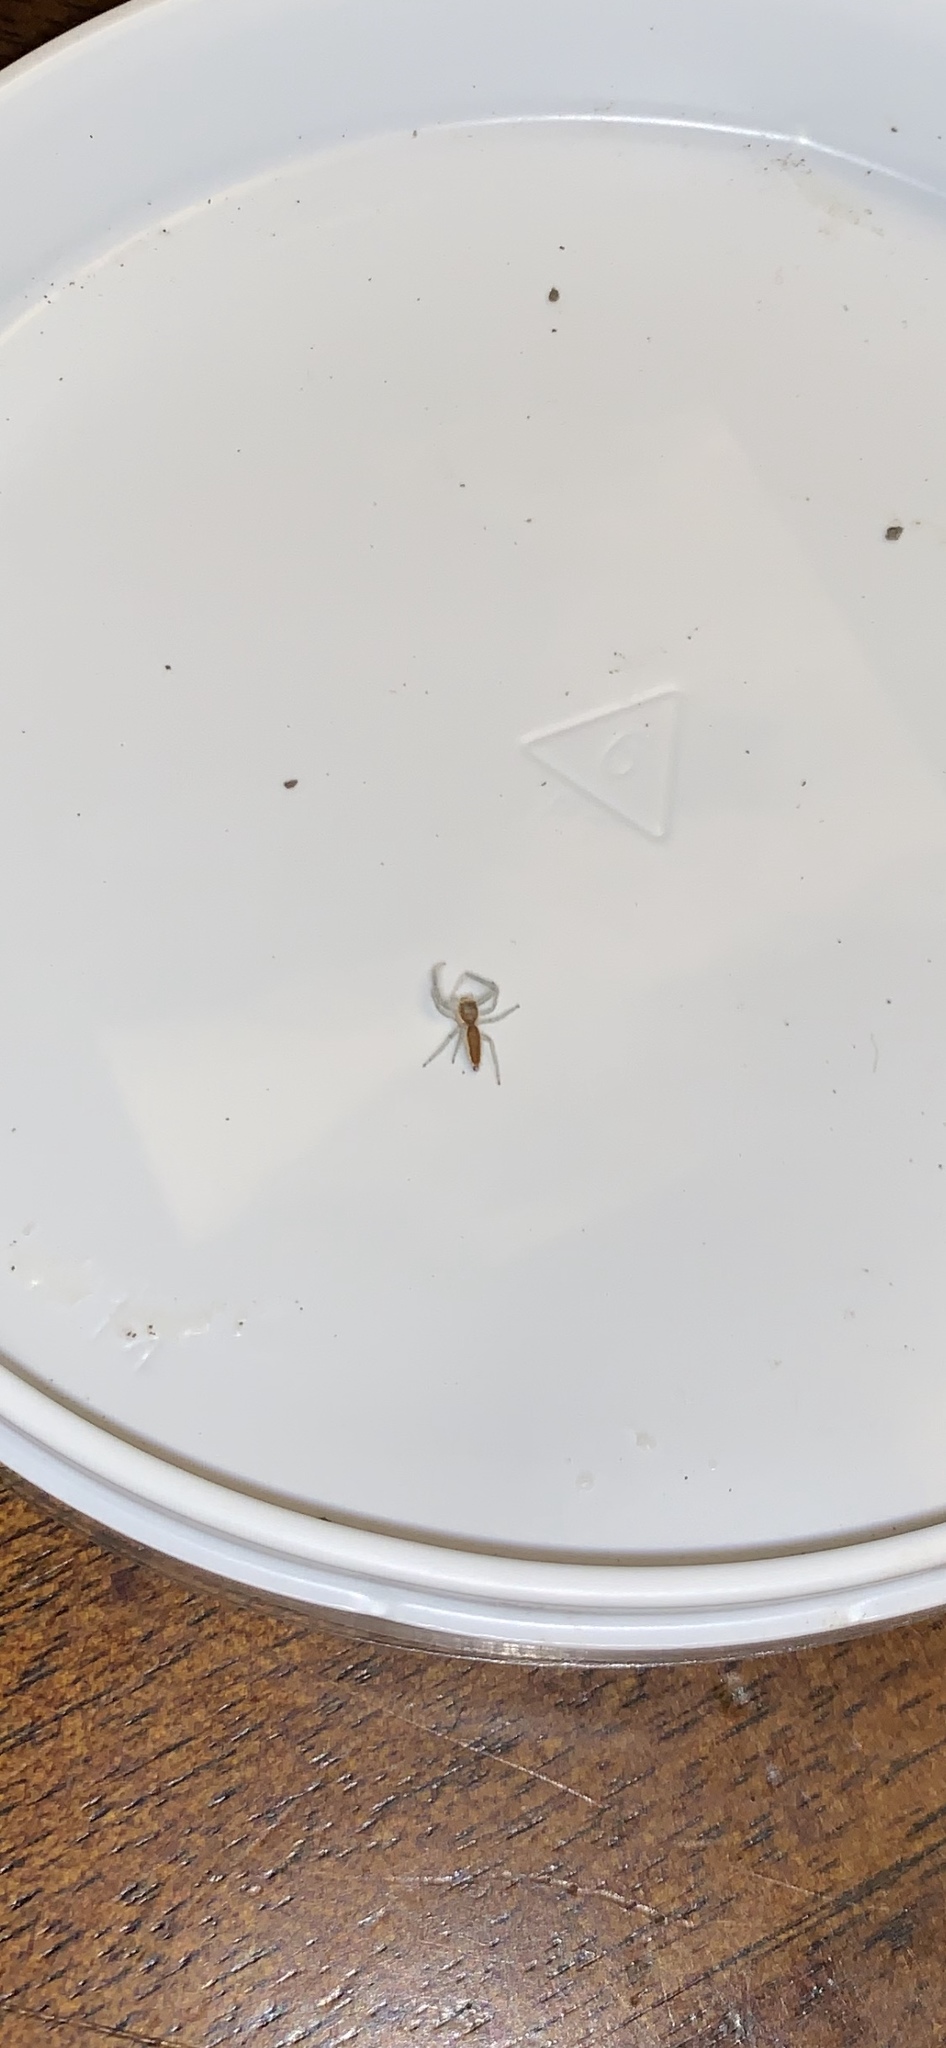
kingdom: Animalia
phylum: Arthropoda
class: Arachnida
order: Araneae
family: Salticidae
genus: Hentzia
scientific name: Hentzia mitrata
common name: White-jawed jumping spider
